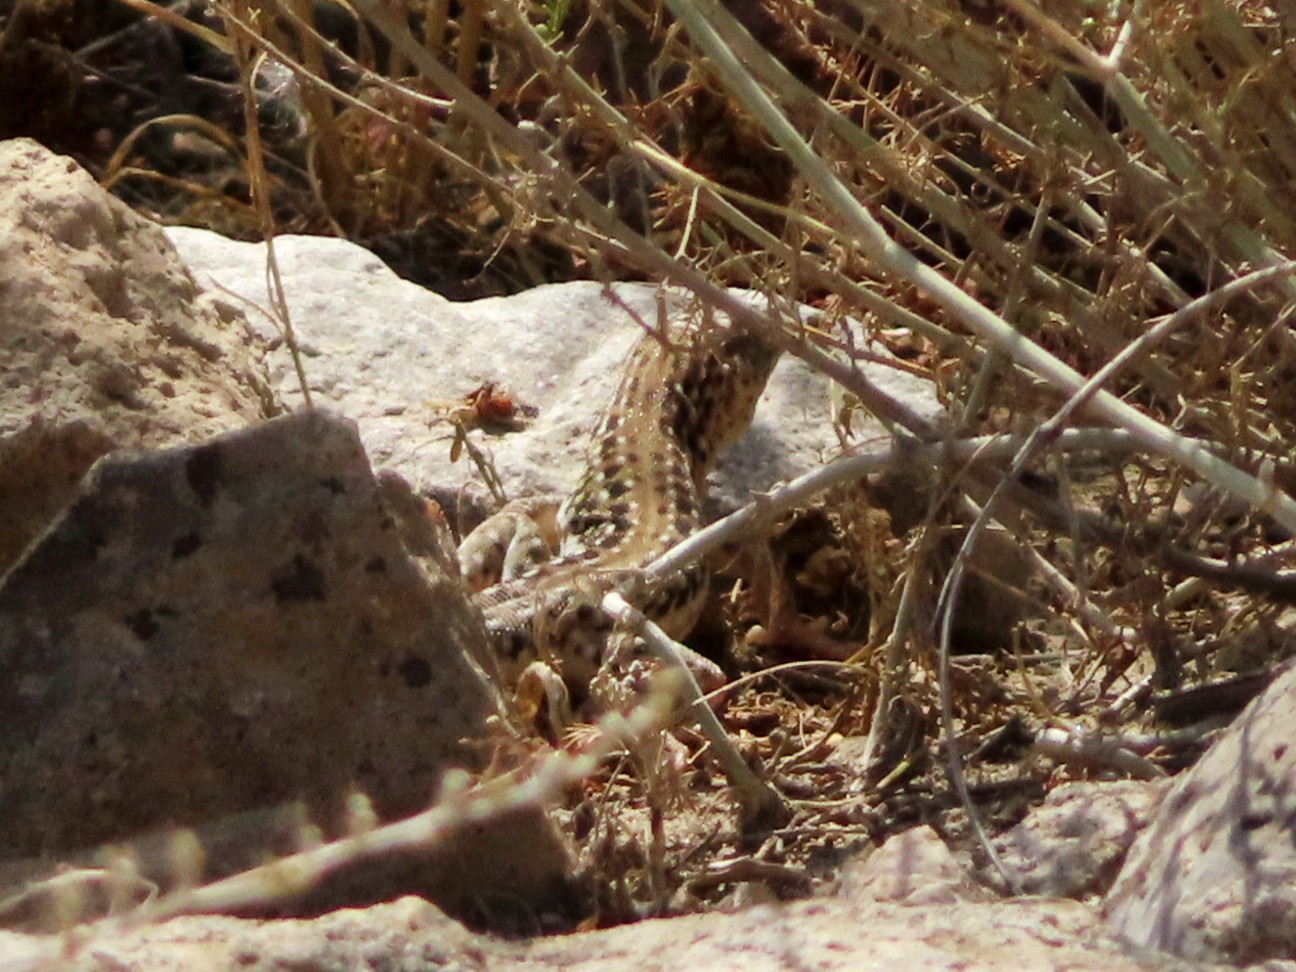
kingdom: Animalia
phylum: Chordata
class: Squamata
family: Lacertidae
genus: Eremias
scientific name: Eremias strauchi
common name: Strauch's racerunner
